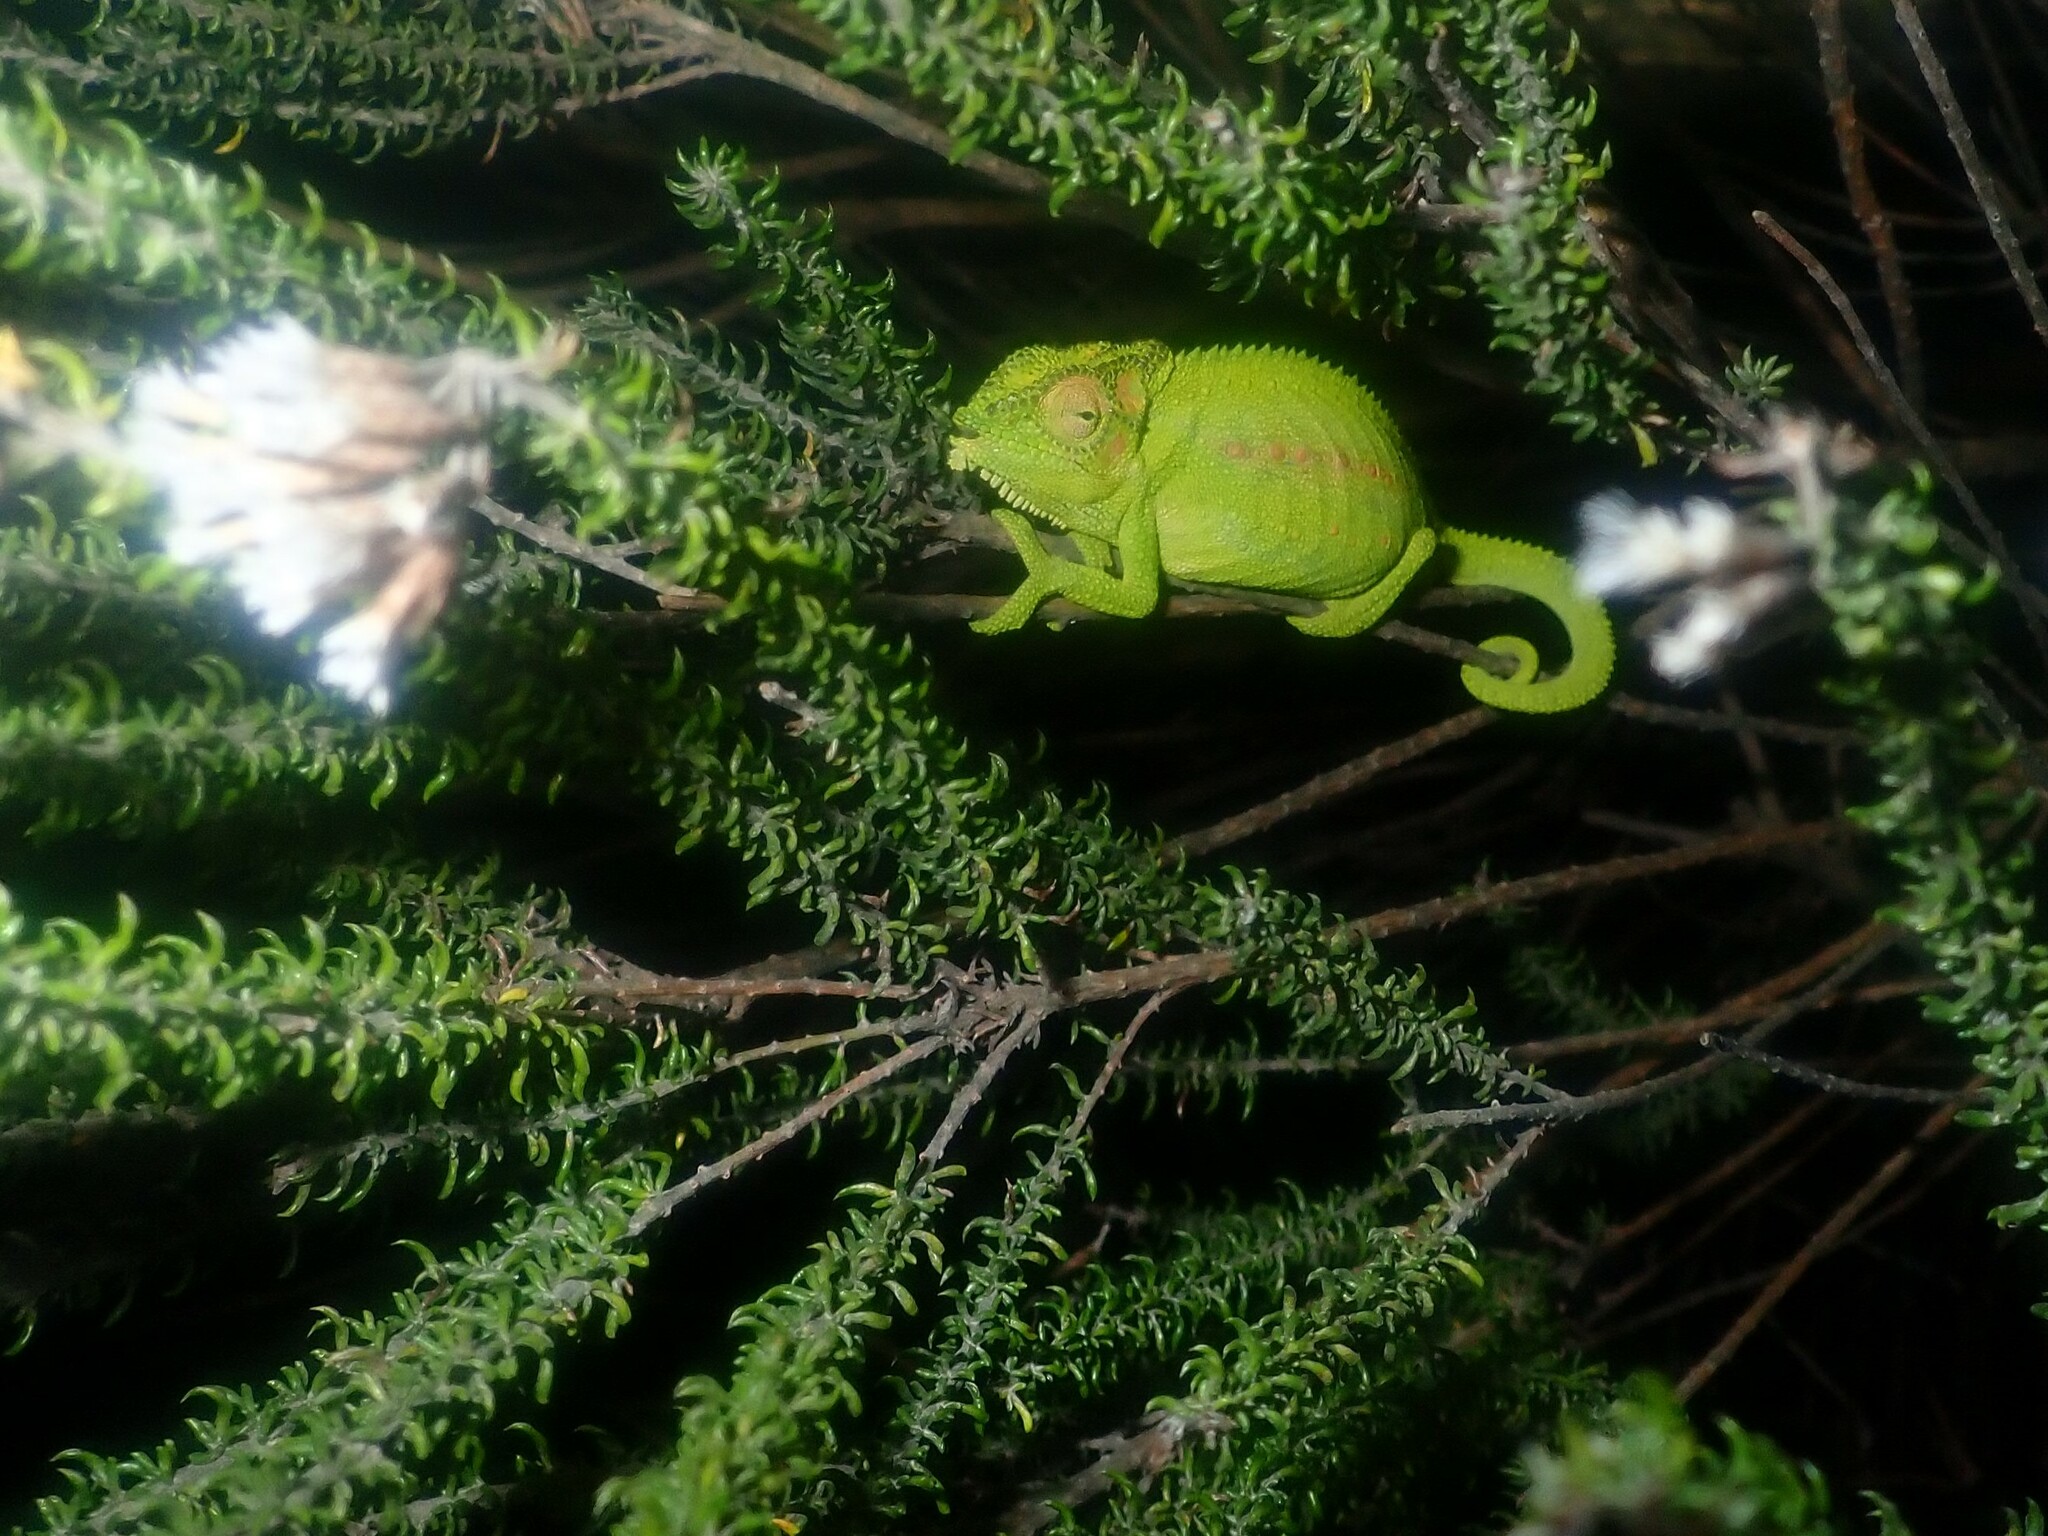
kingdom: Animalia
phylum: Chordata
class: Squamata
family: Chamaeleonidae
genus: Bradypodion
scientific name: Bradypodion pumilum
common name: Cape dwarf chameleon
